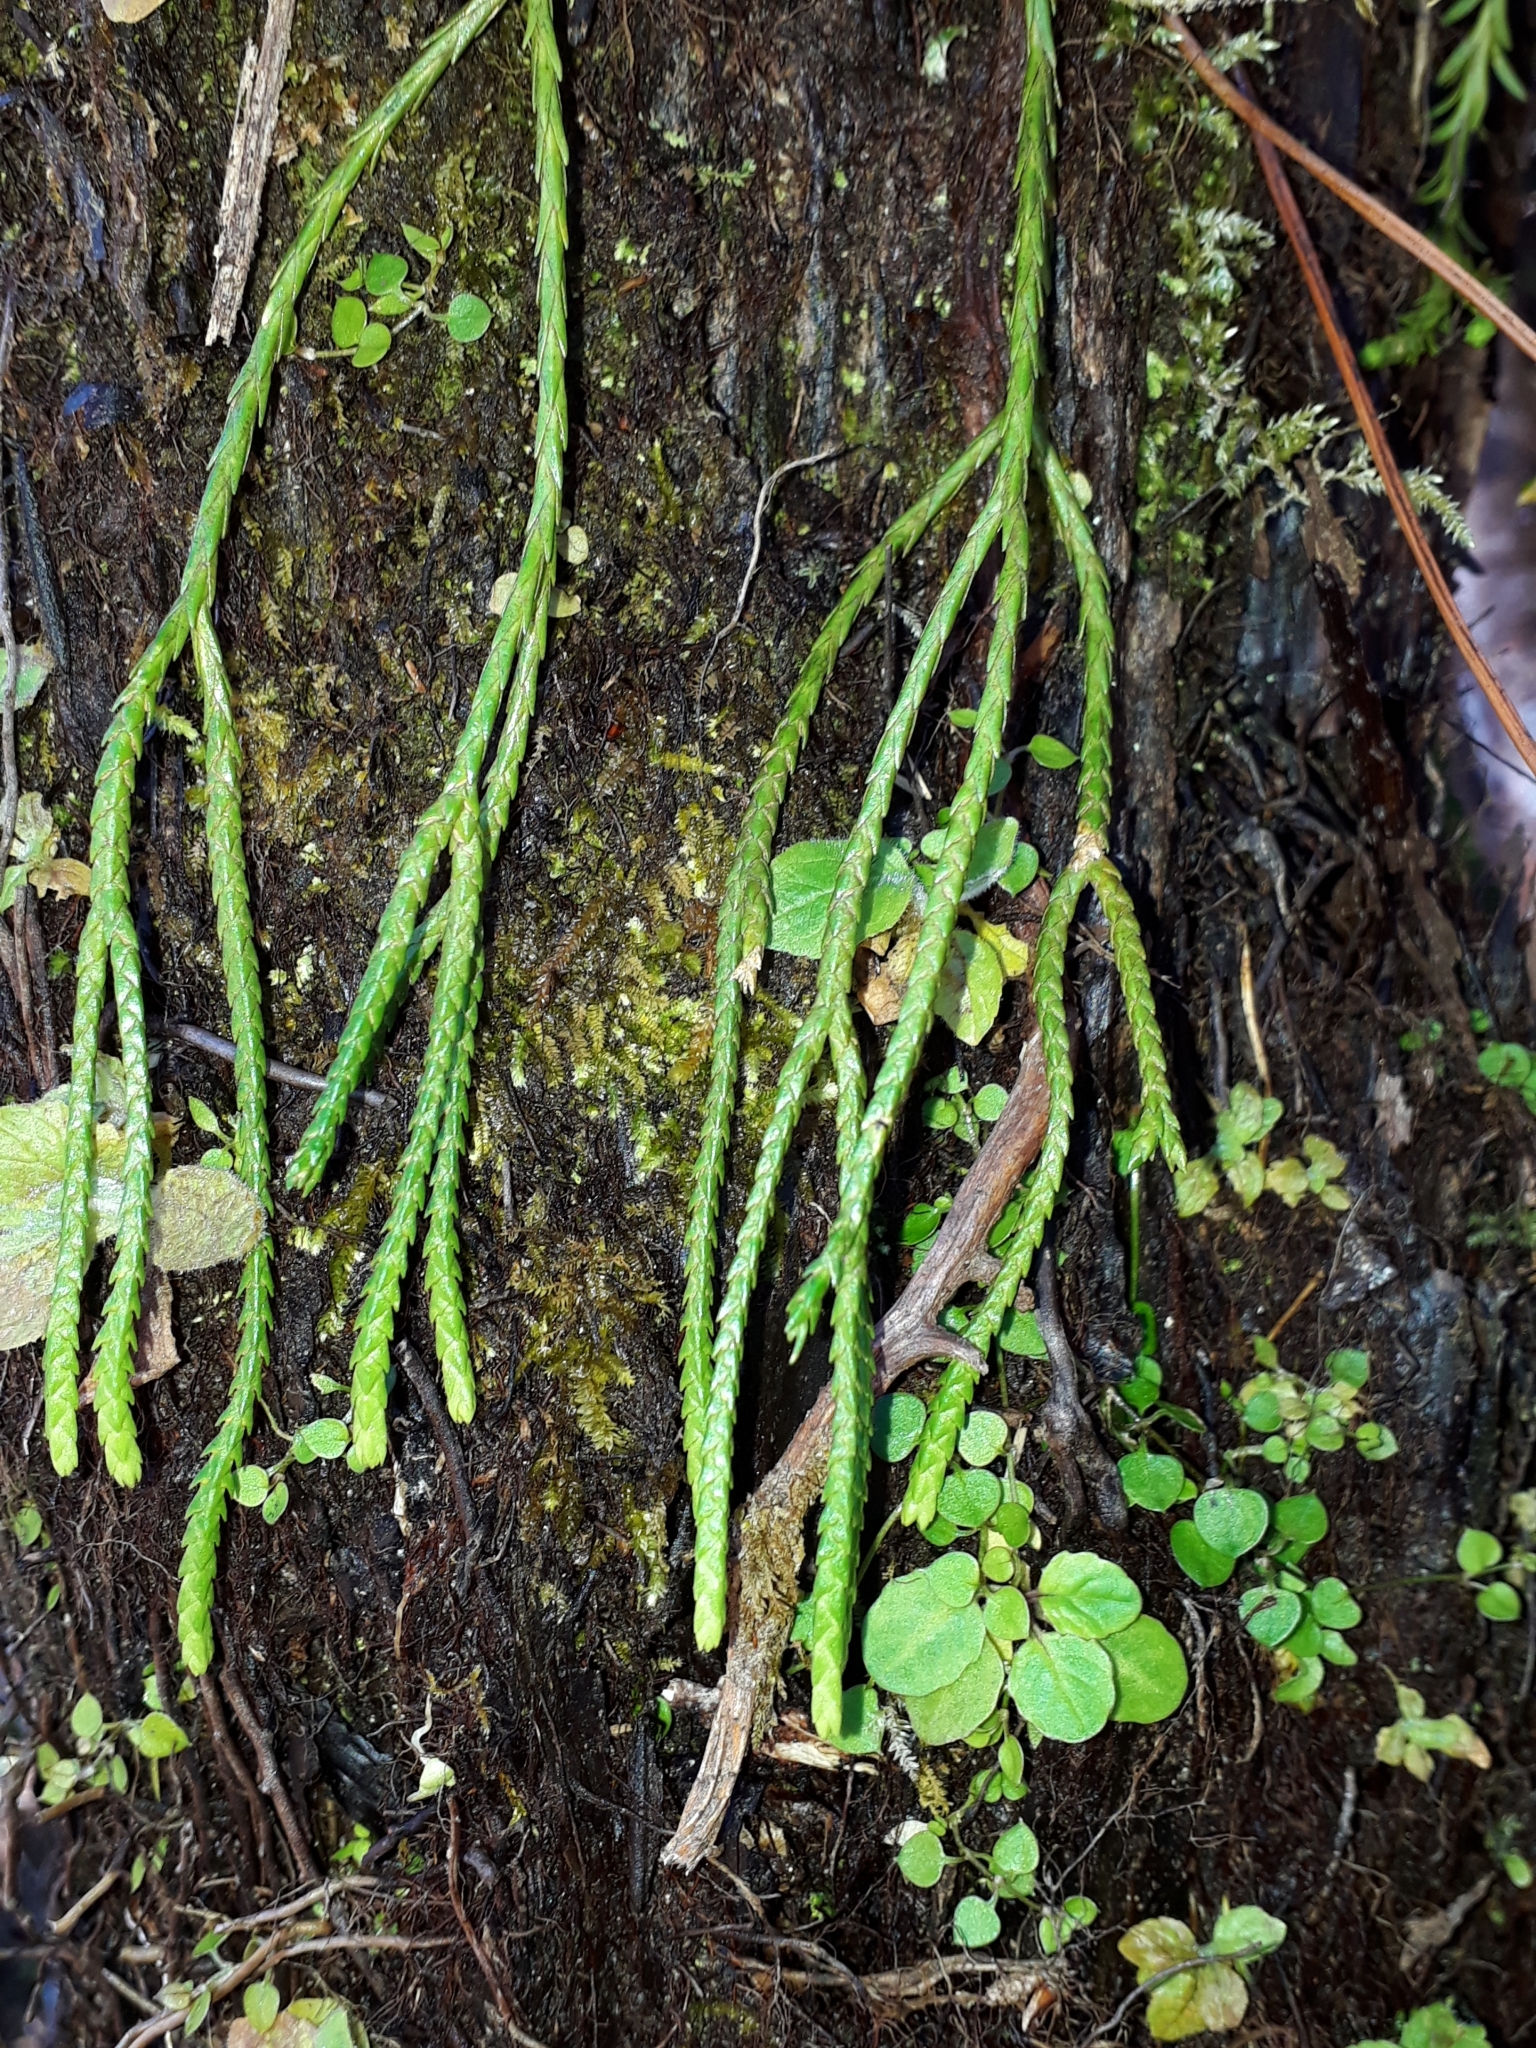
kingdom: Plantae
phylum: Tracheophyta
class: Lycopodiopsida
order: Lycopodiales
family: Lycopodiaceae
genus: Phlegmariurus
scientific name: Phlegmariurus billardierei
